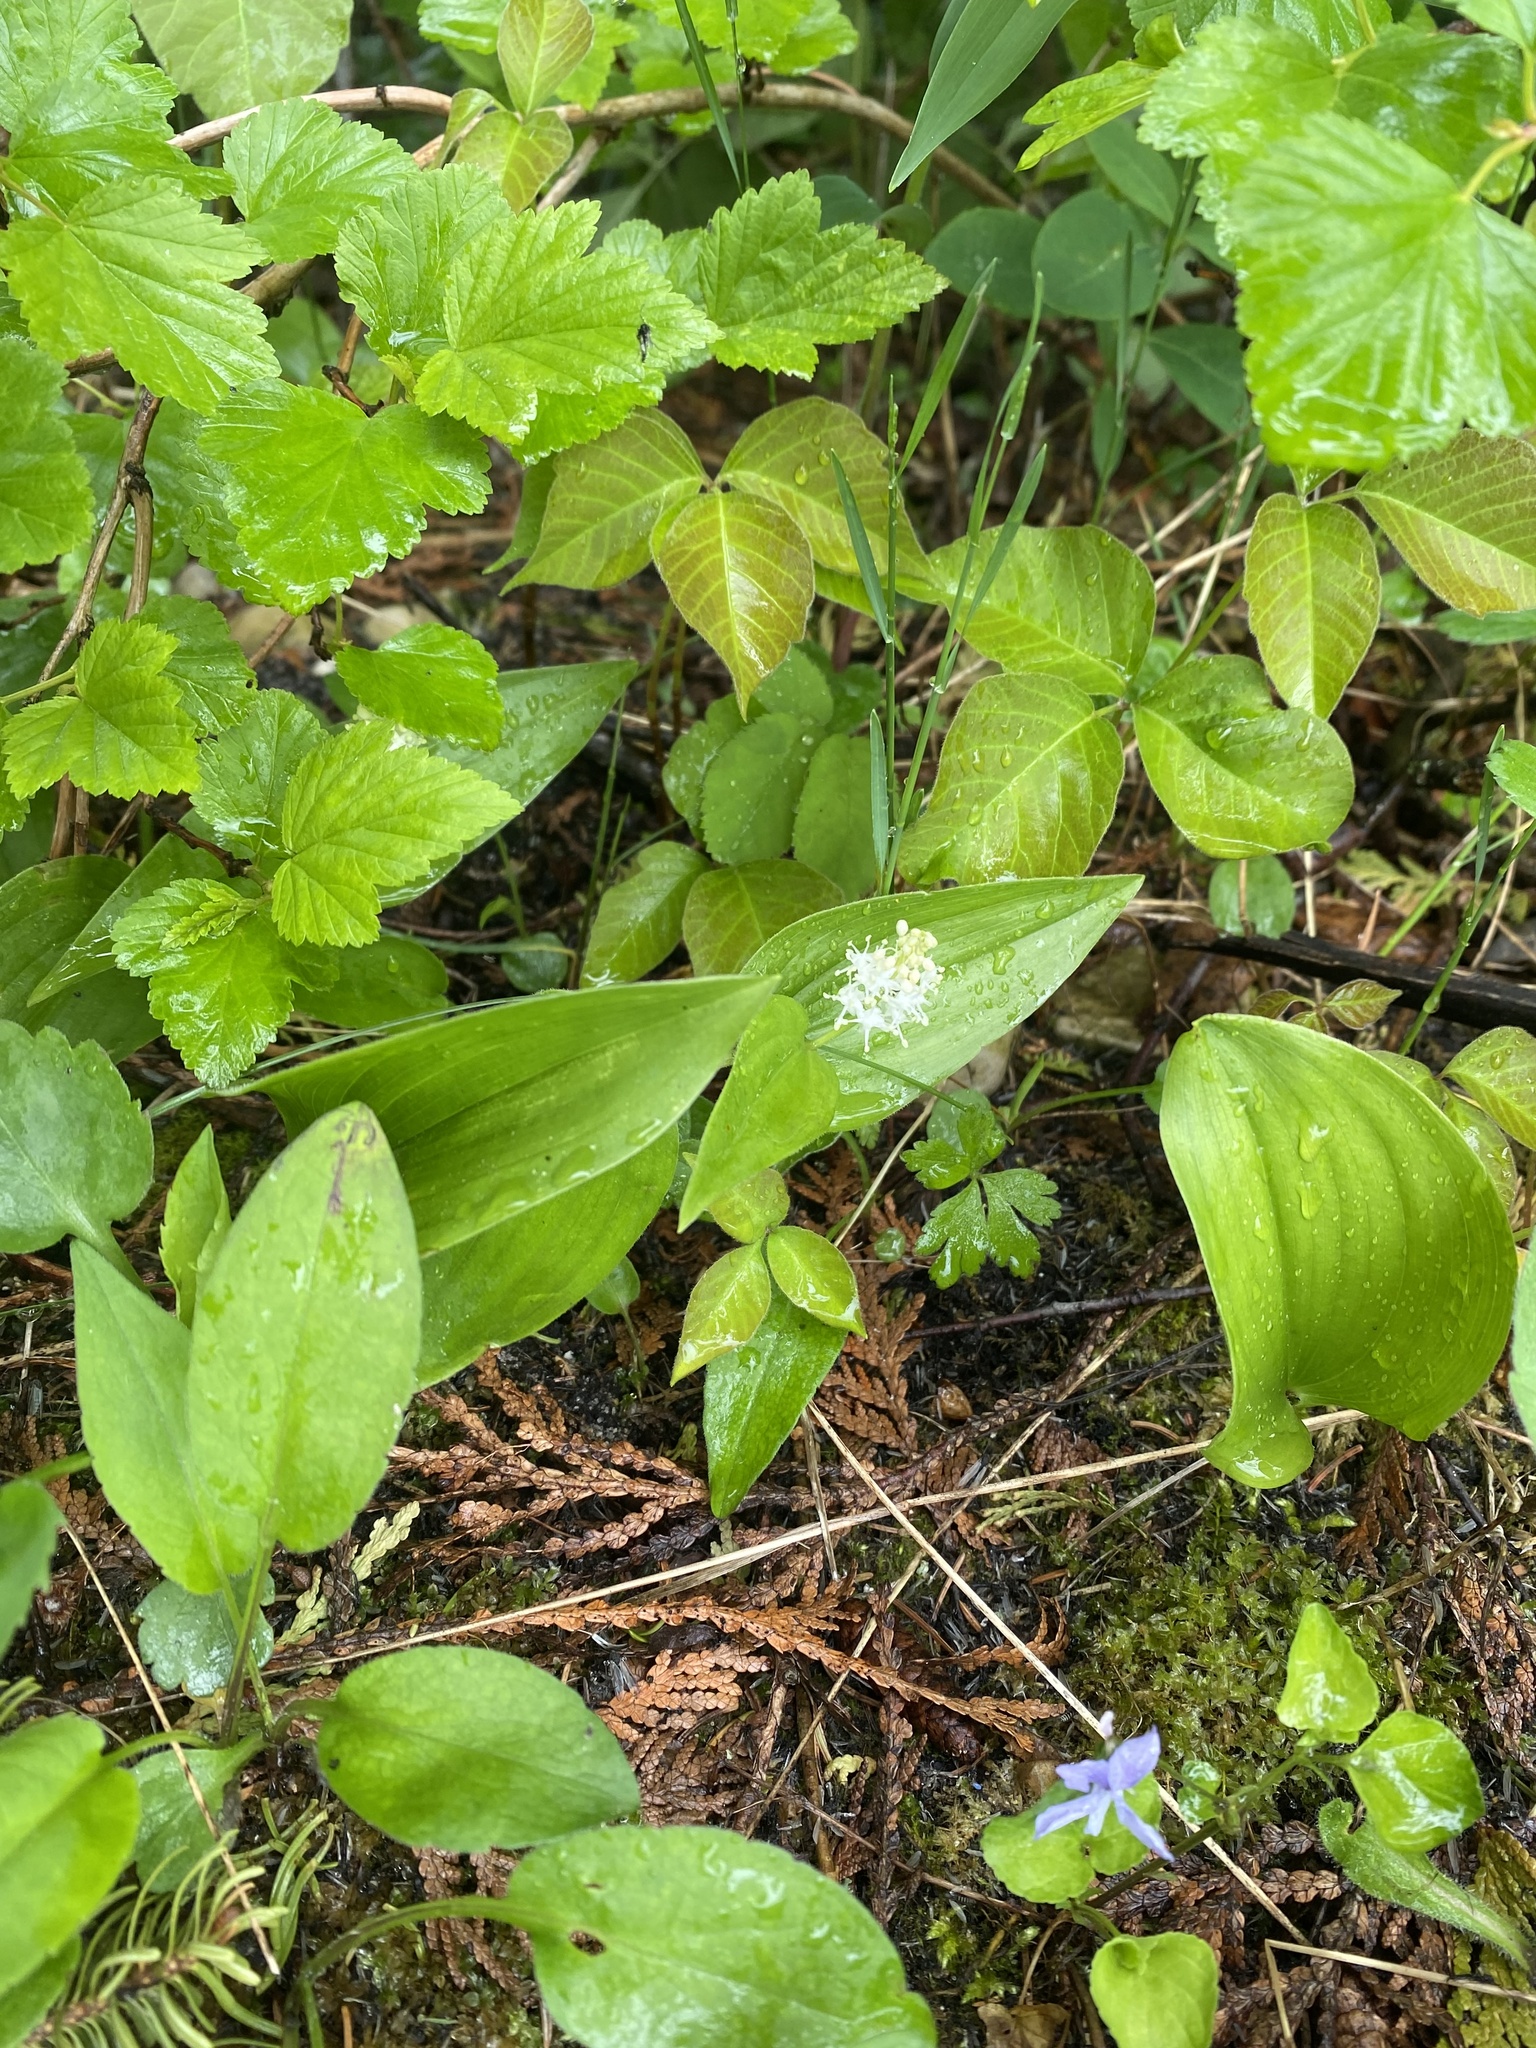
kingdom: Plantae
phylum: Tracheophyta
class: Liliopsida
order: Asparagales
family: Asparagaceae
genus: Maianthemum
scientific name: Maianthemum canadense
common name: False lily-of-the-valley
